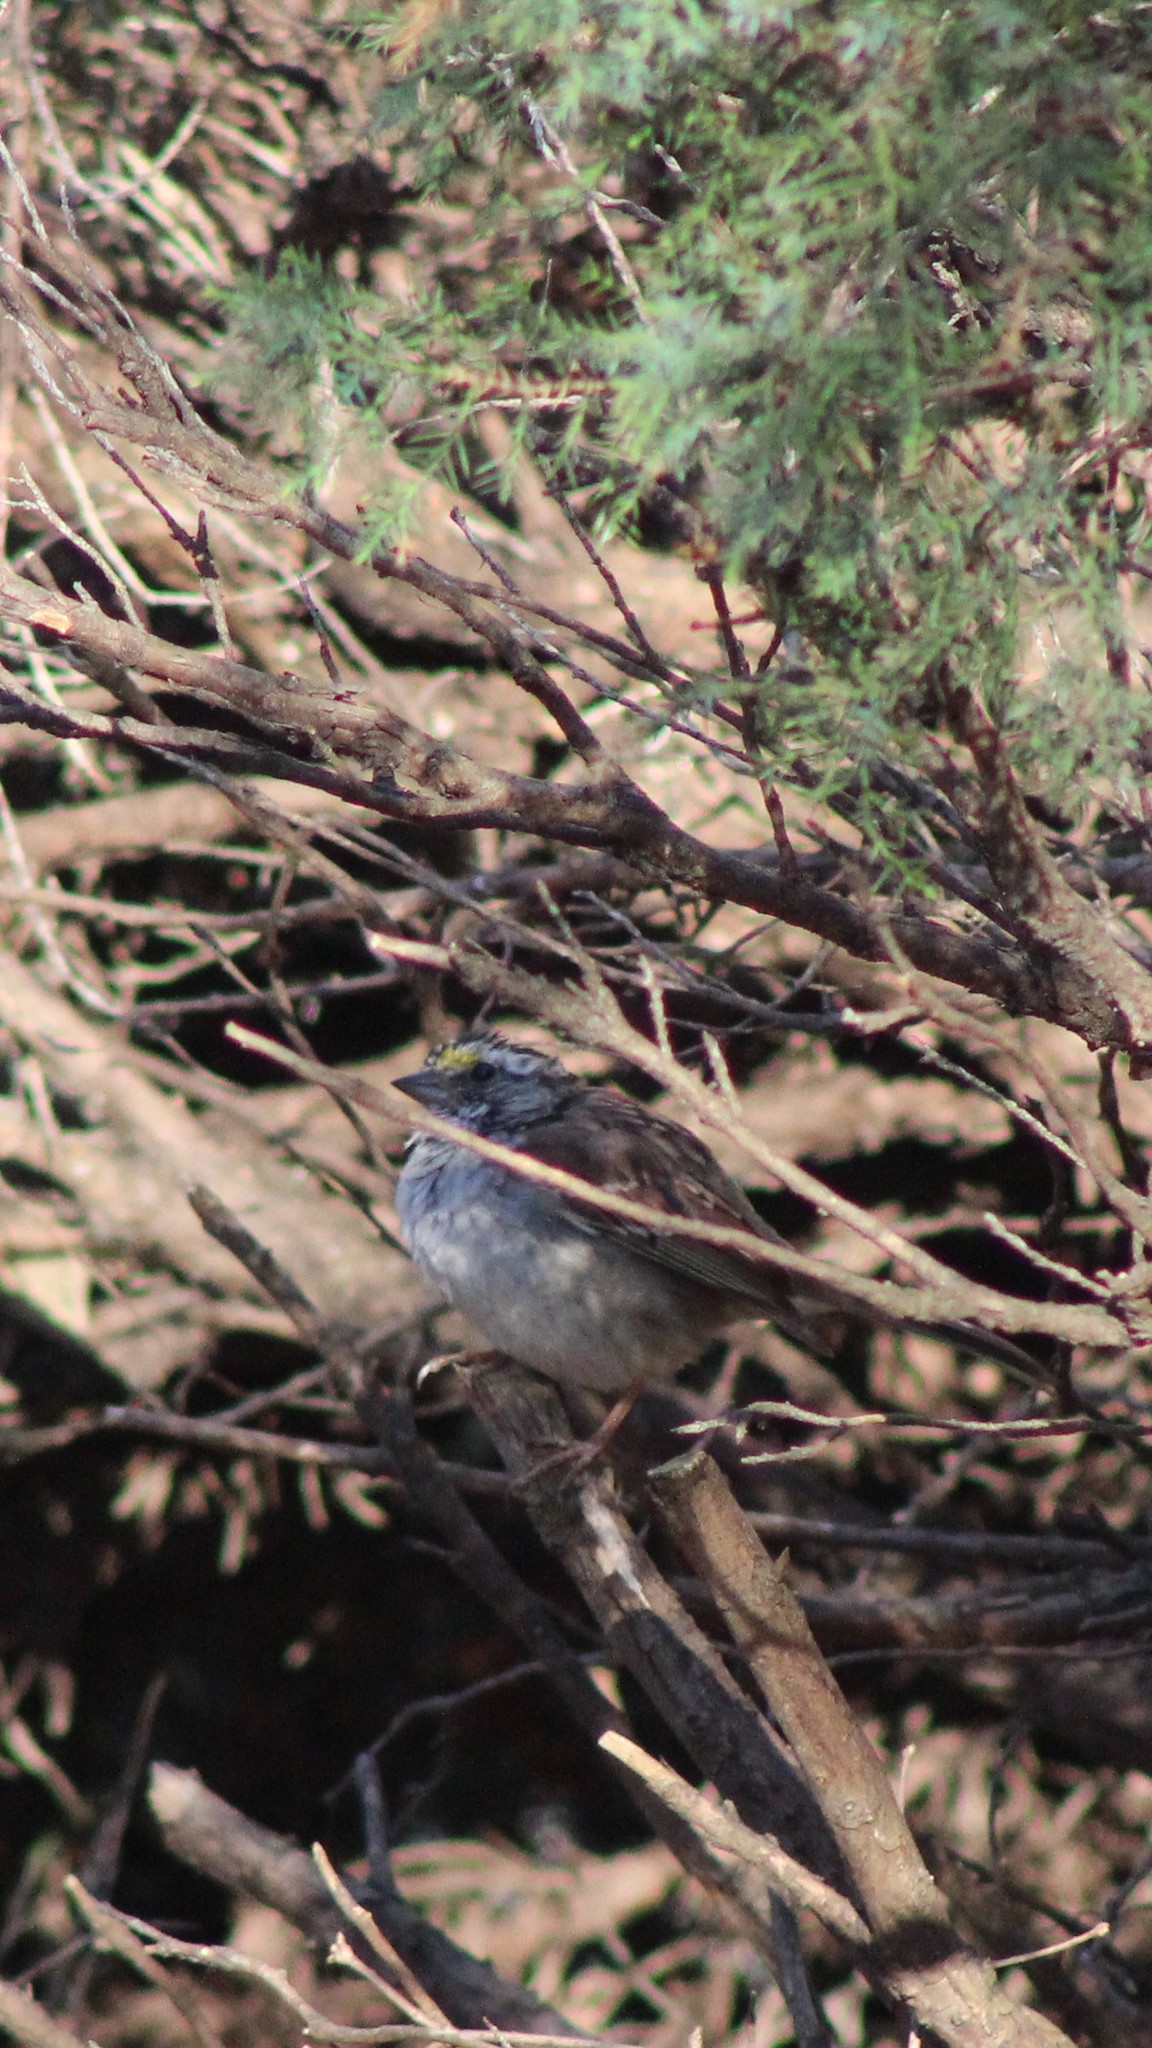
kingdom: Animalia
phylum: Chordata
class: Aves
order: Passeriformes
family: Passerellidae
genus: Zonotrichia
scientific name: Zonotrichia albicollis
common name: White-throated sparrow
